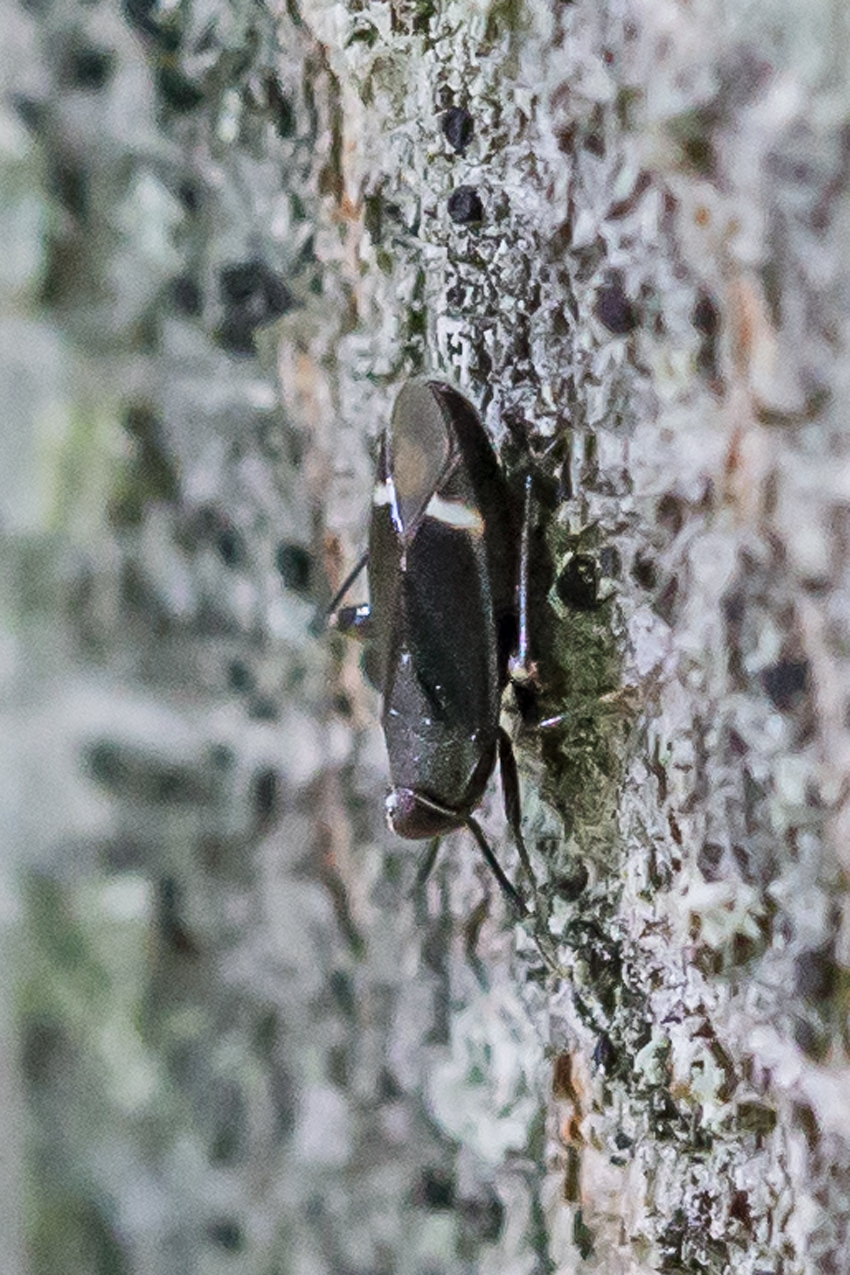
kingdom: Animalia
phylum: Arthropoda
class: Insecta
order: Hemiptera
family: Miridae
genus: Myiomma
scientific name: Myiomma cixiiforme
